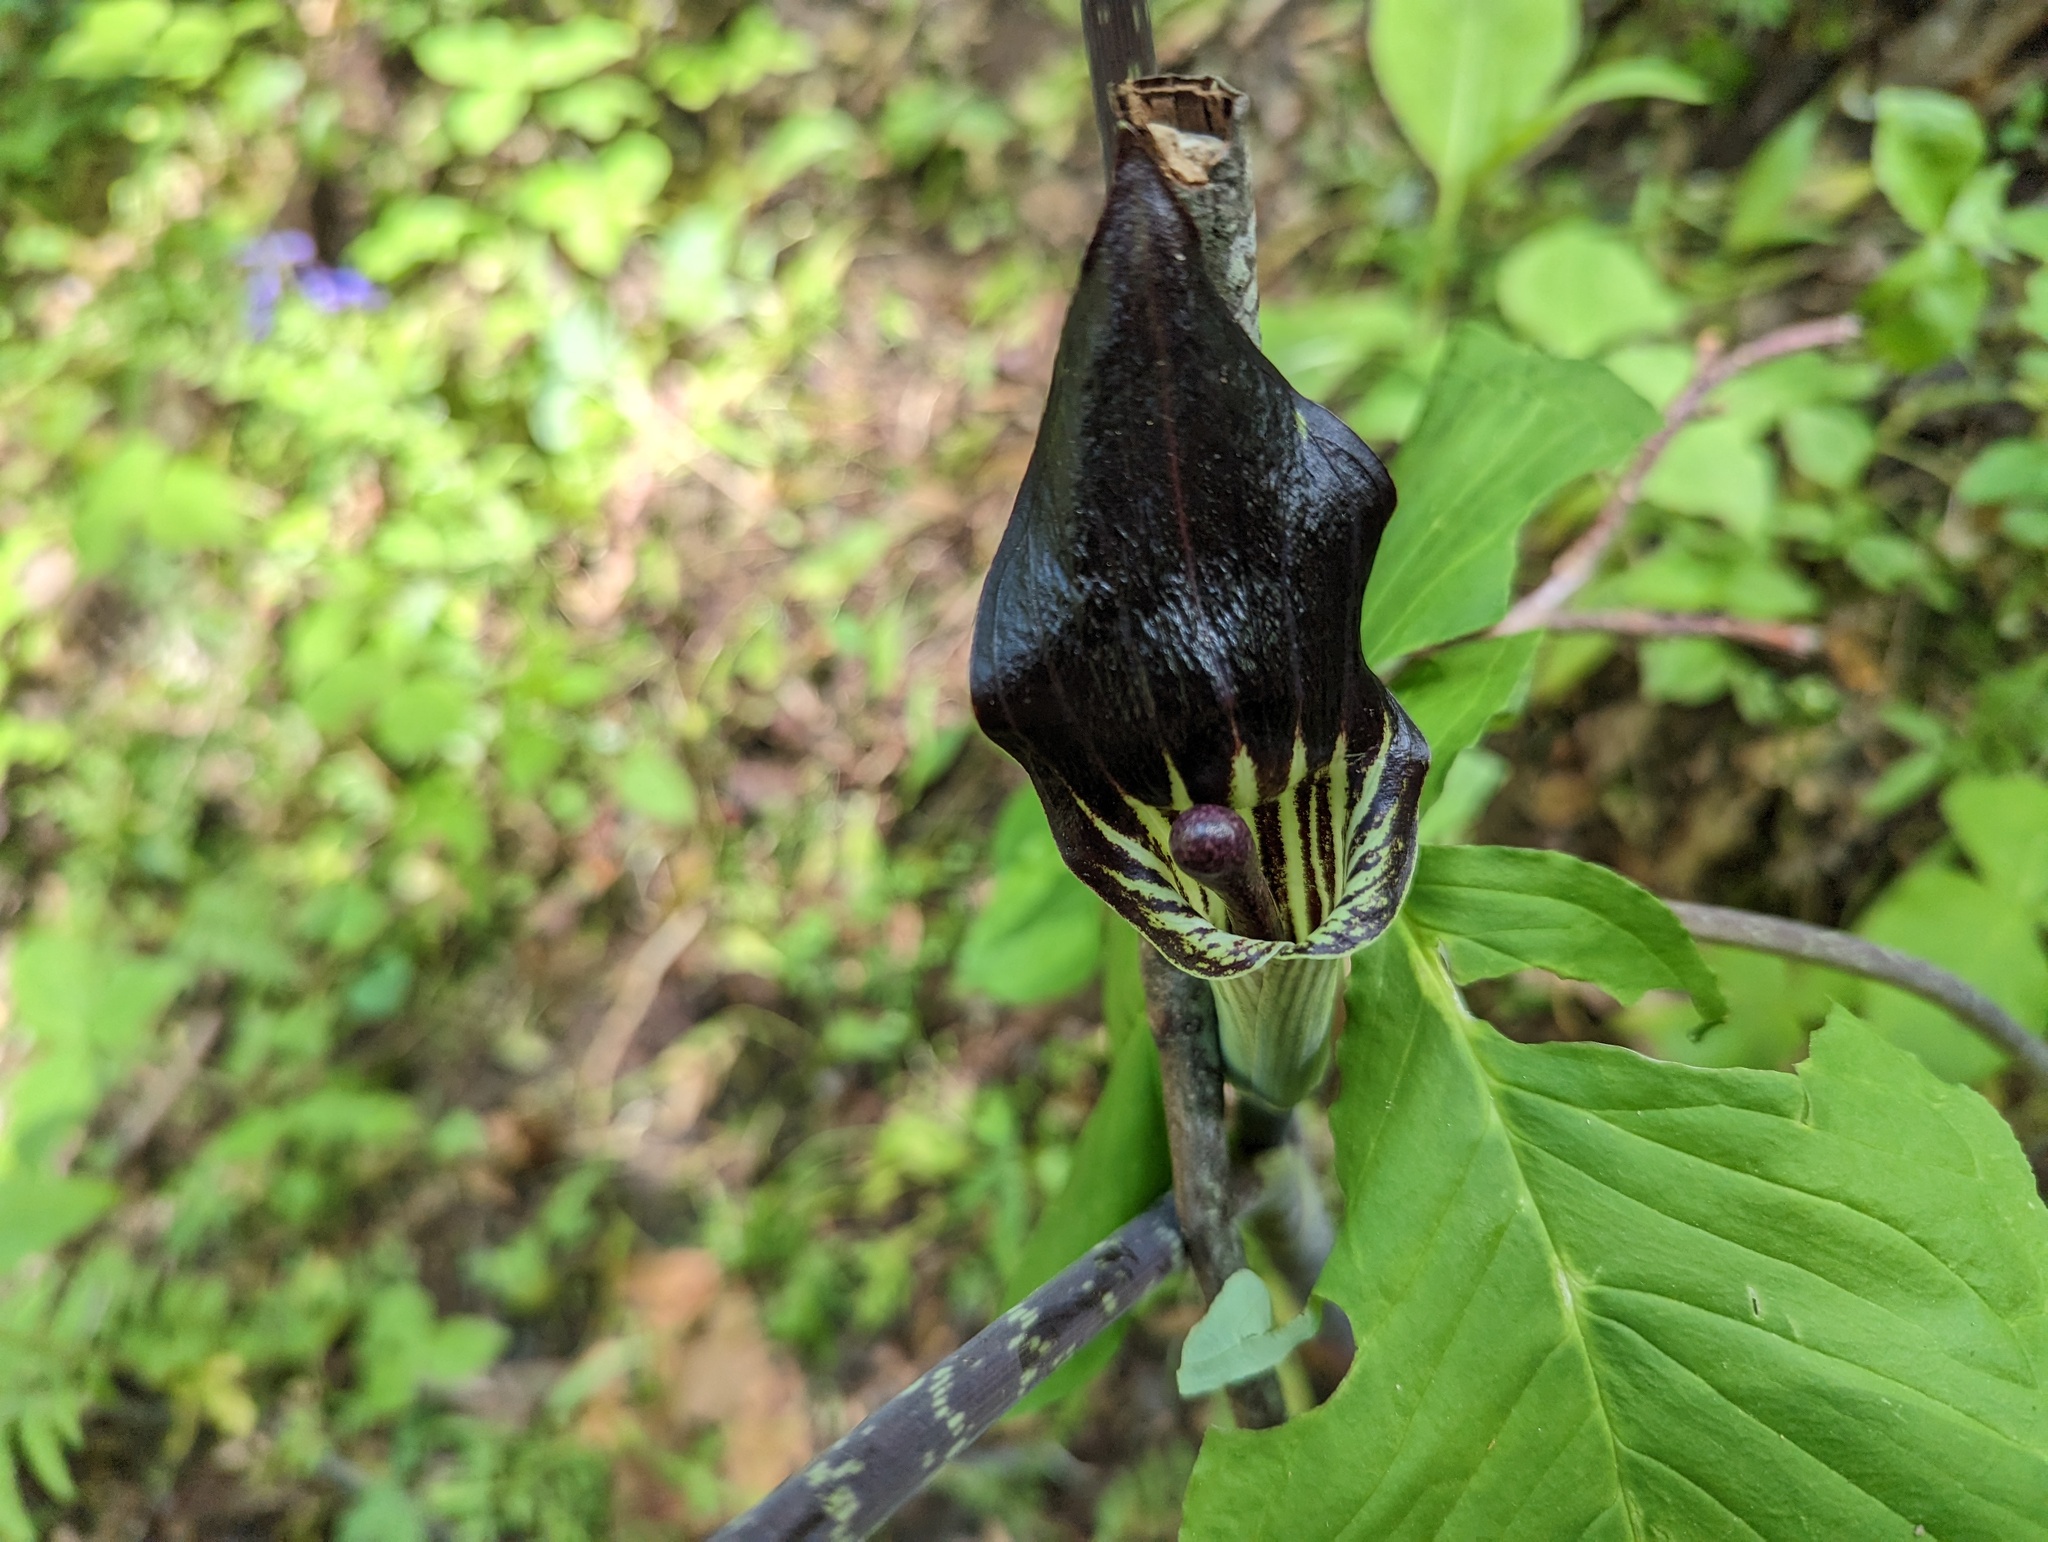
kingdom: Plantae
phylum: Tracheophyta
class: Liliopsida
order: Alismatales
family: Araceae
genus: Arisaema
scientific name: Arisaema pusillum
